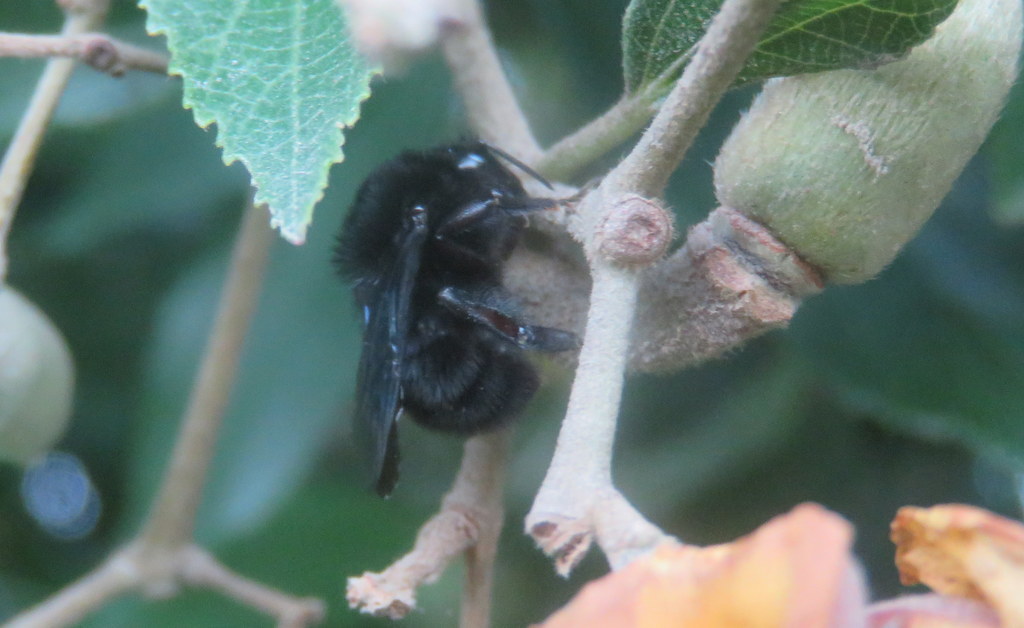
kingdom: Animalia
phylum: Arthropoda
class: Insecta
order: Hymenoptera
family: Apidae
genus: Bombus
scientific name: Bombus pauloensis
